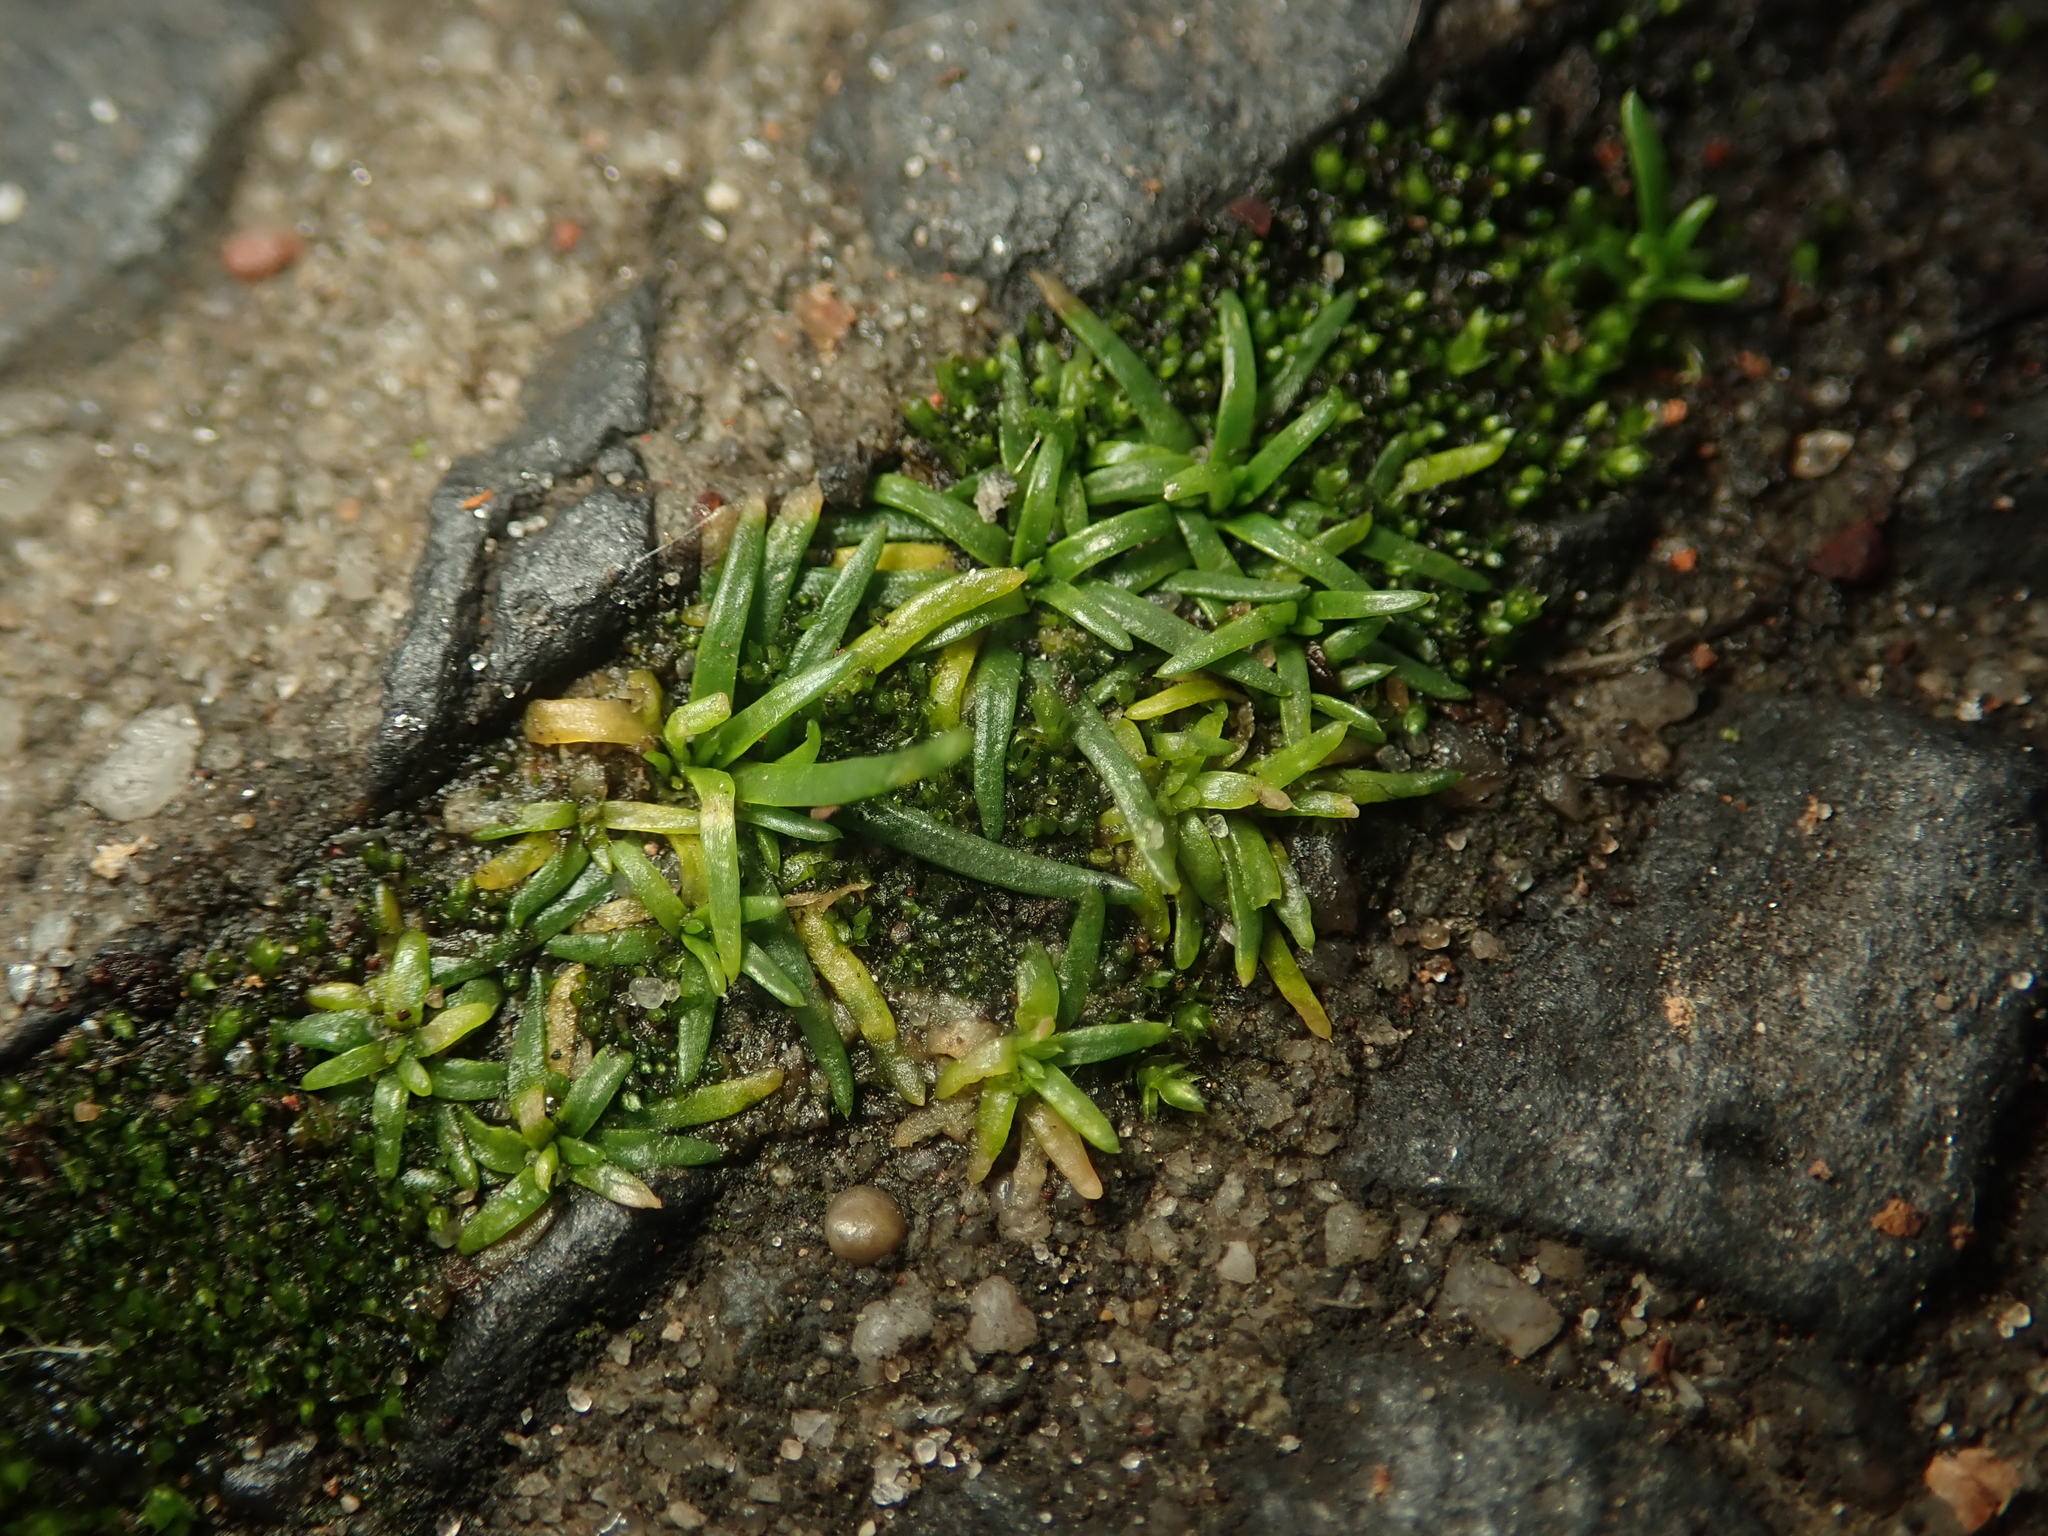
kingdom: Plantae
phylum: Tracheophyta
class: Magnoliopsida
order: Caryophyllales
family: Caryophyllaceae
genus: Sagina
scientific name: Sagina procumbens
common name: Procumbent pearlwort
